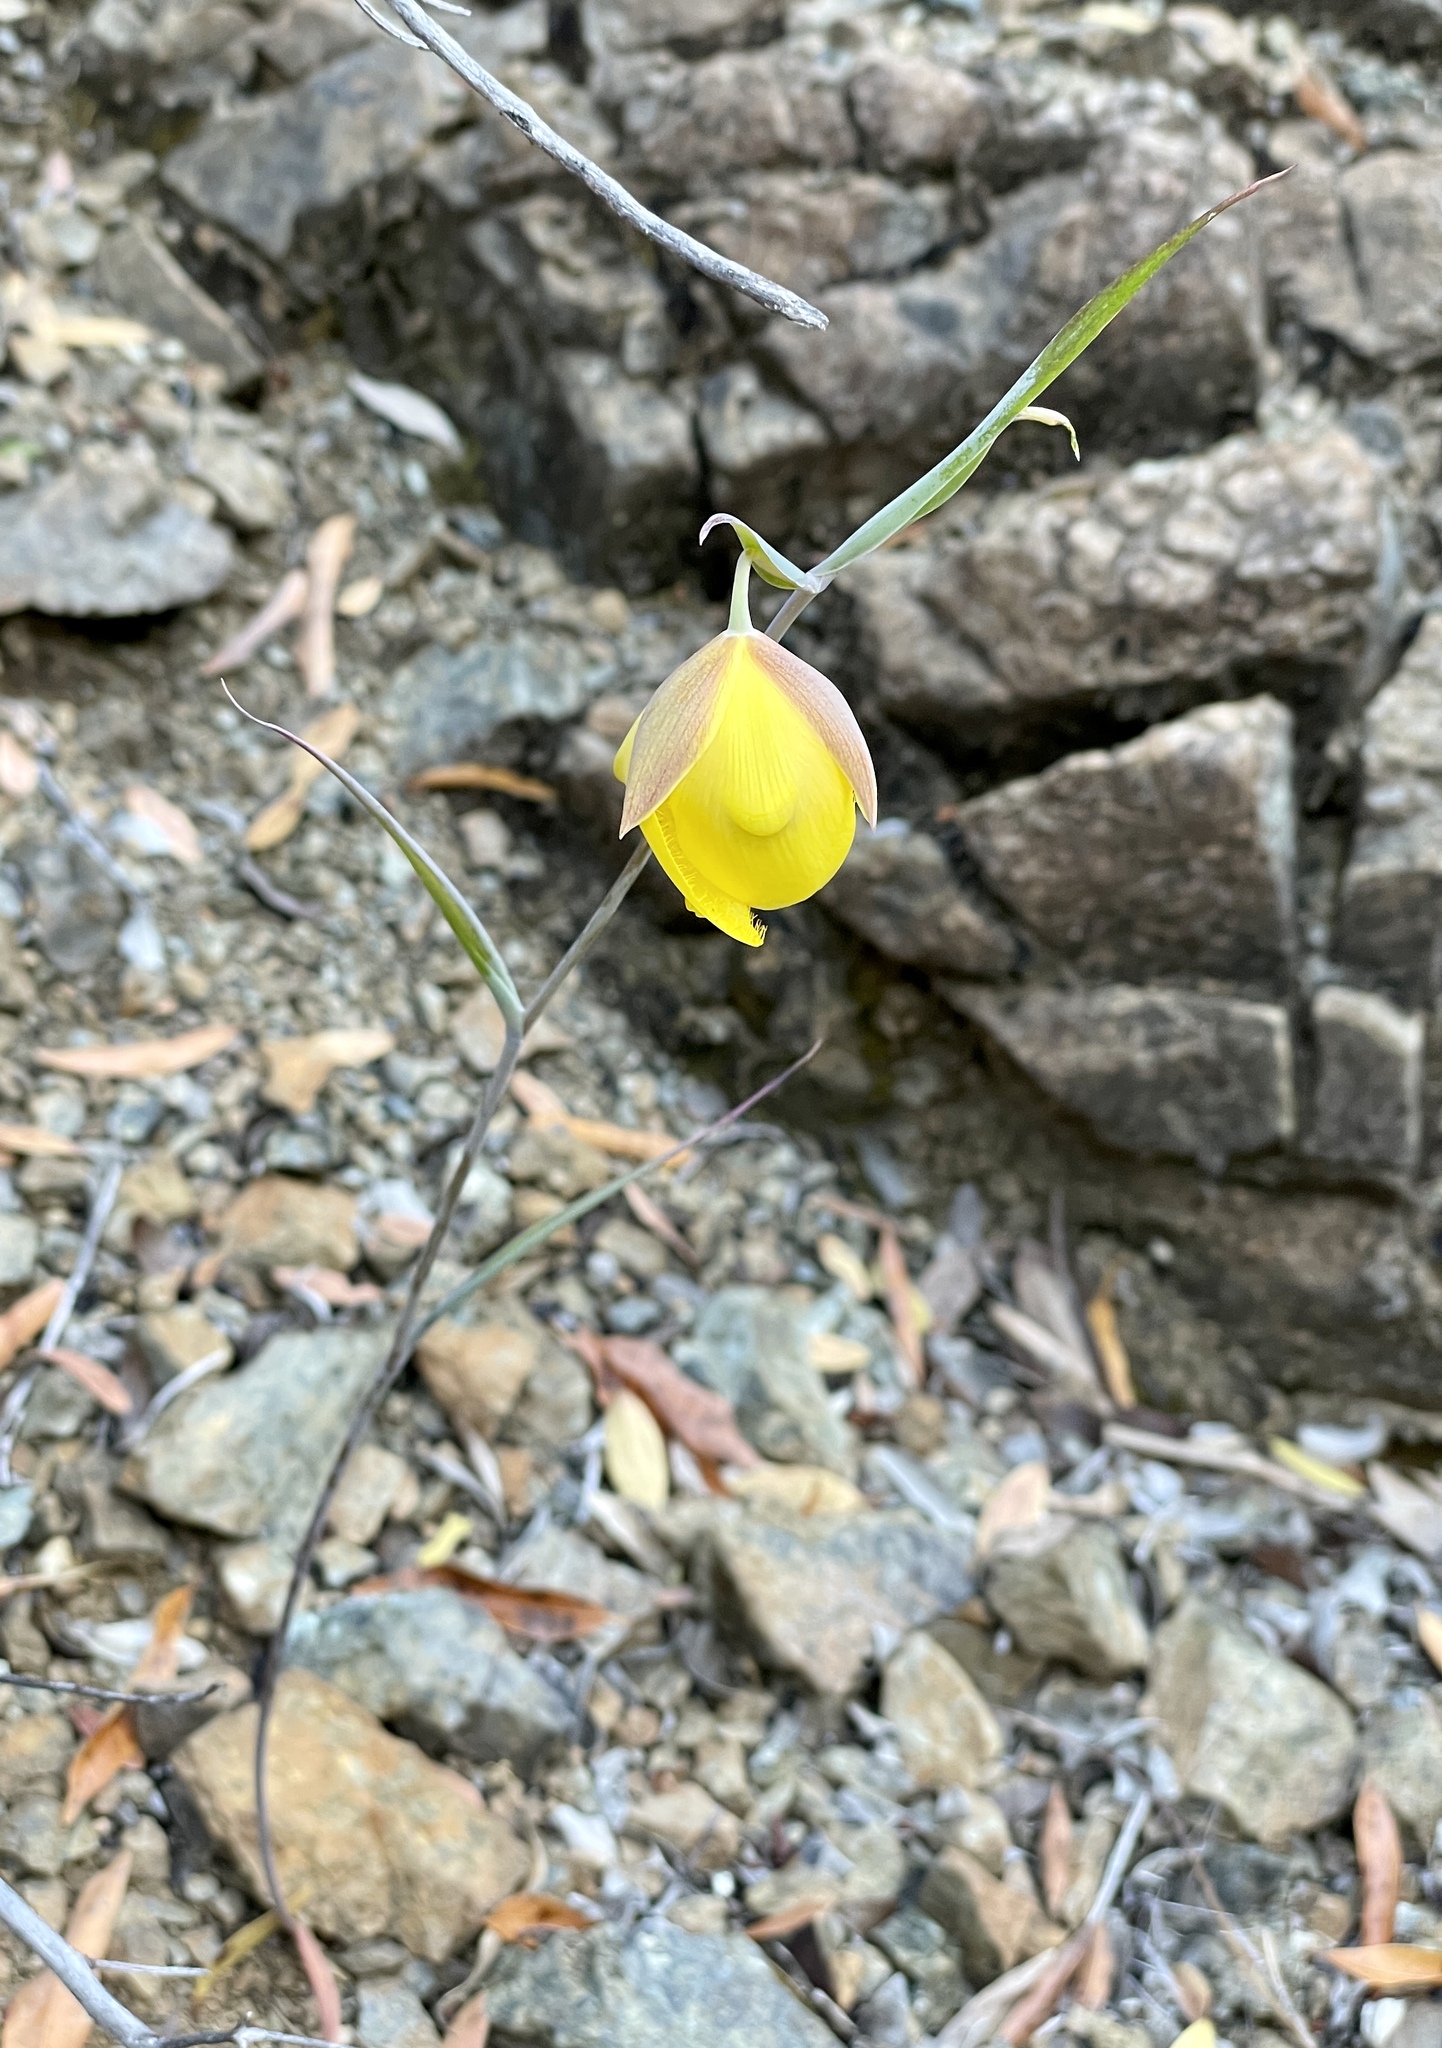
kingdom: Plantae
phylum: Tracheophyta
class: Liliopsida
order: Liliales
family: Liliaceae
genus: Calochortus
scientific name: Calochortus raichei
